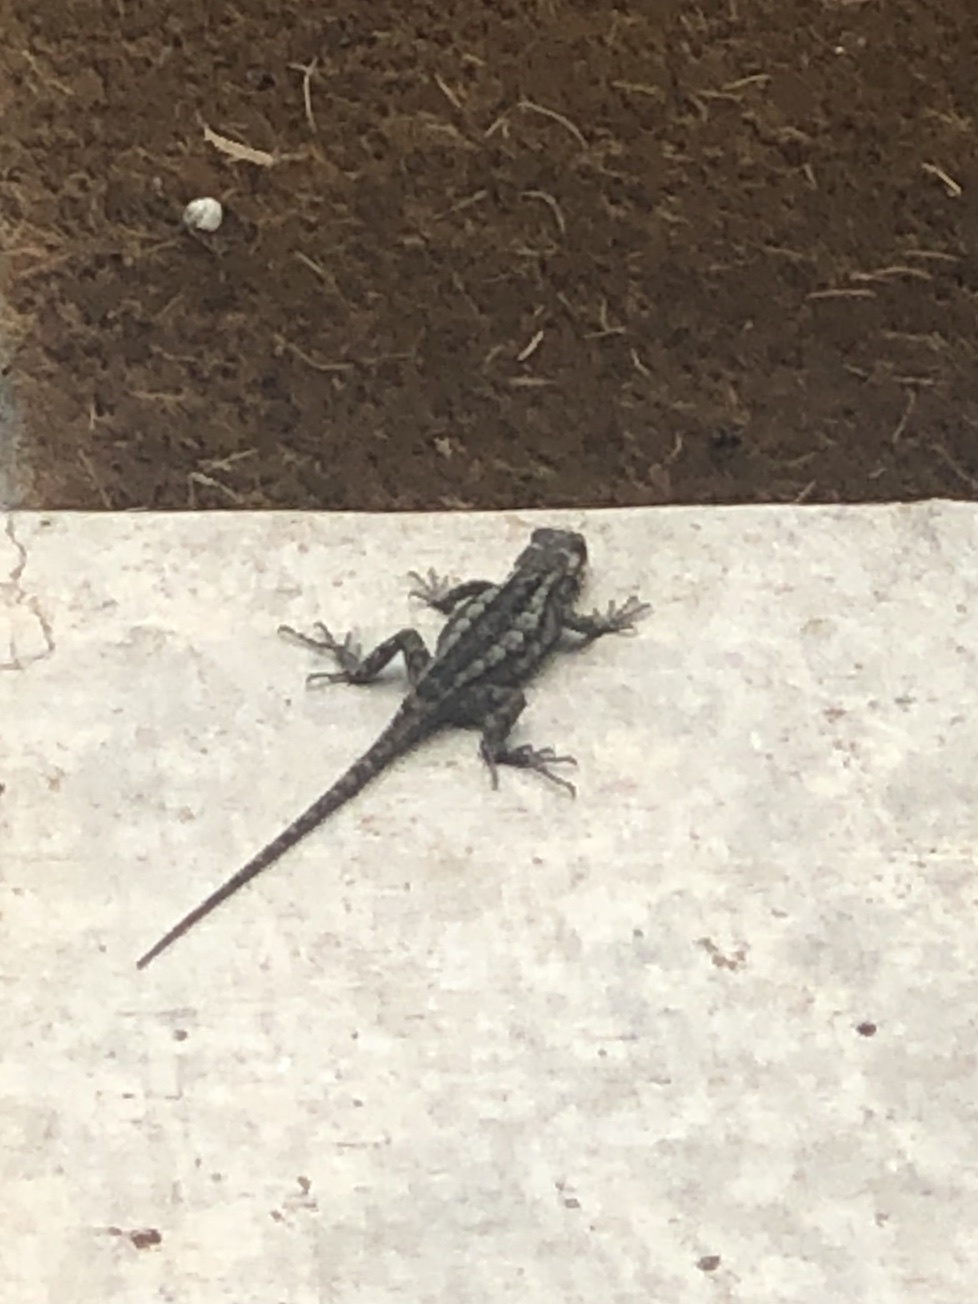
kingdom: Animalia
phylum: Chordata
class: Squamata
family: Phrynosomatidae
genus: Sceloporus
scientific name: Sceloporus olivaceus
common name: Texas spiny lizard
